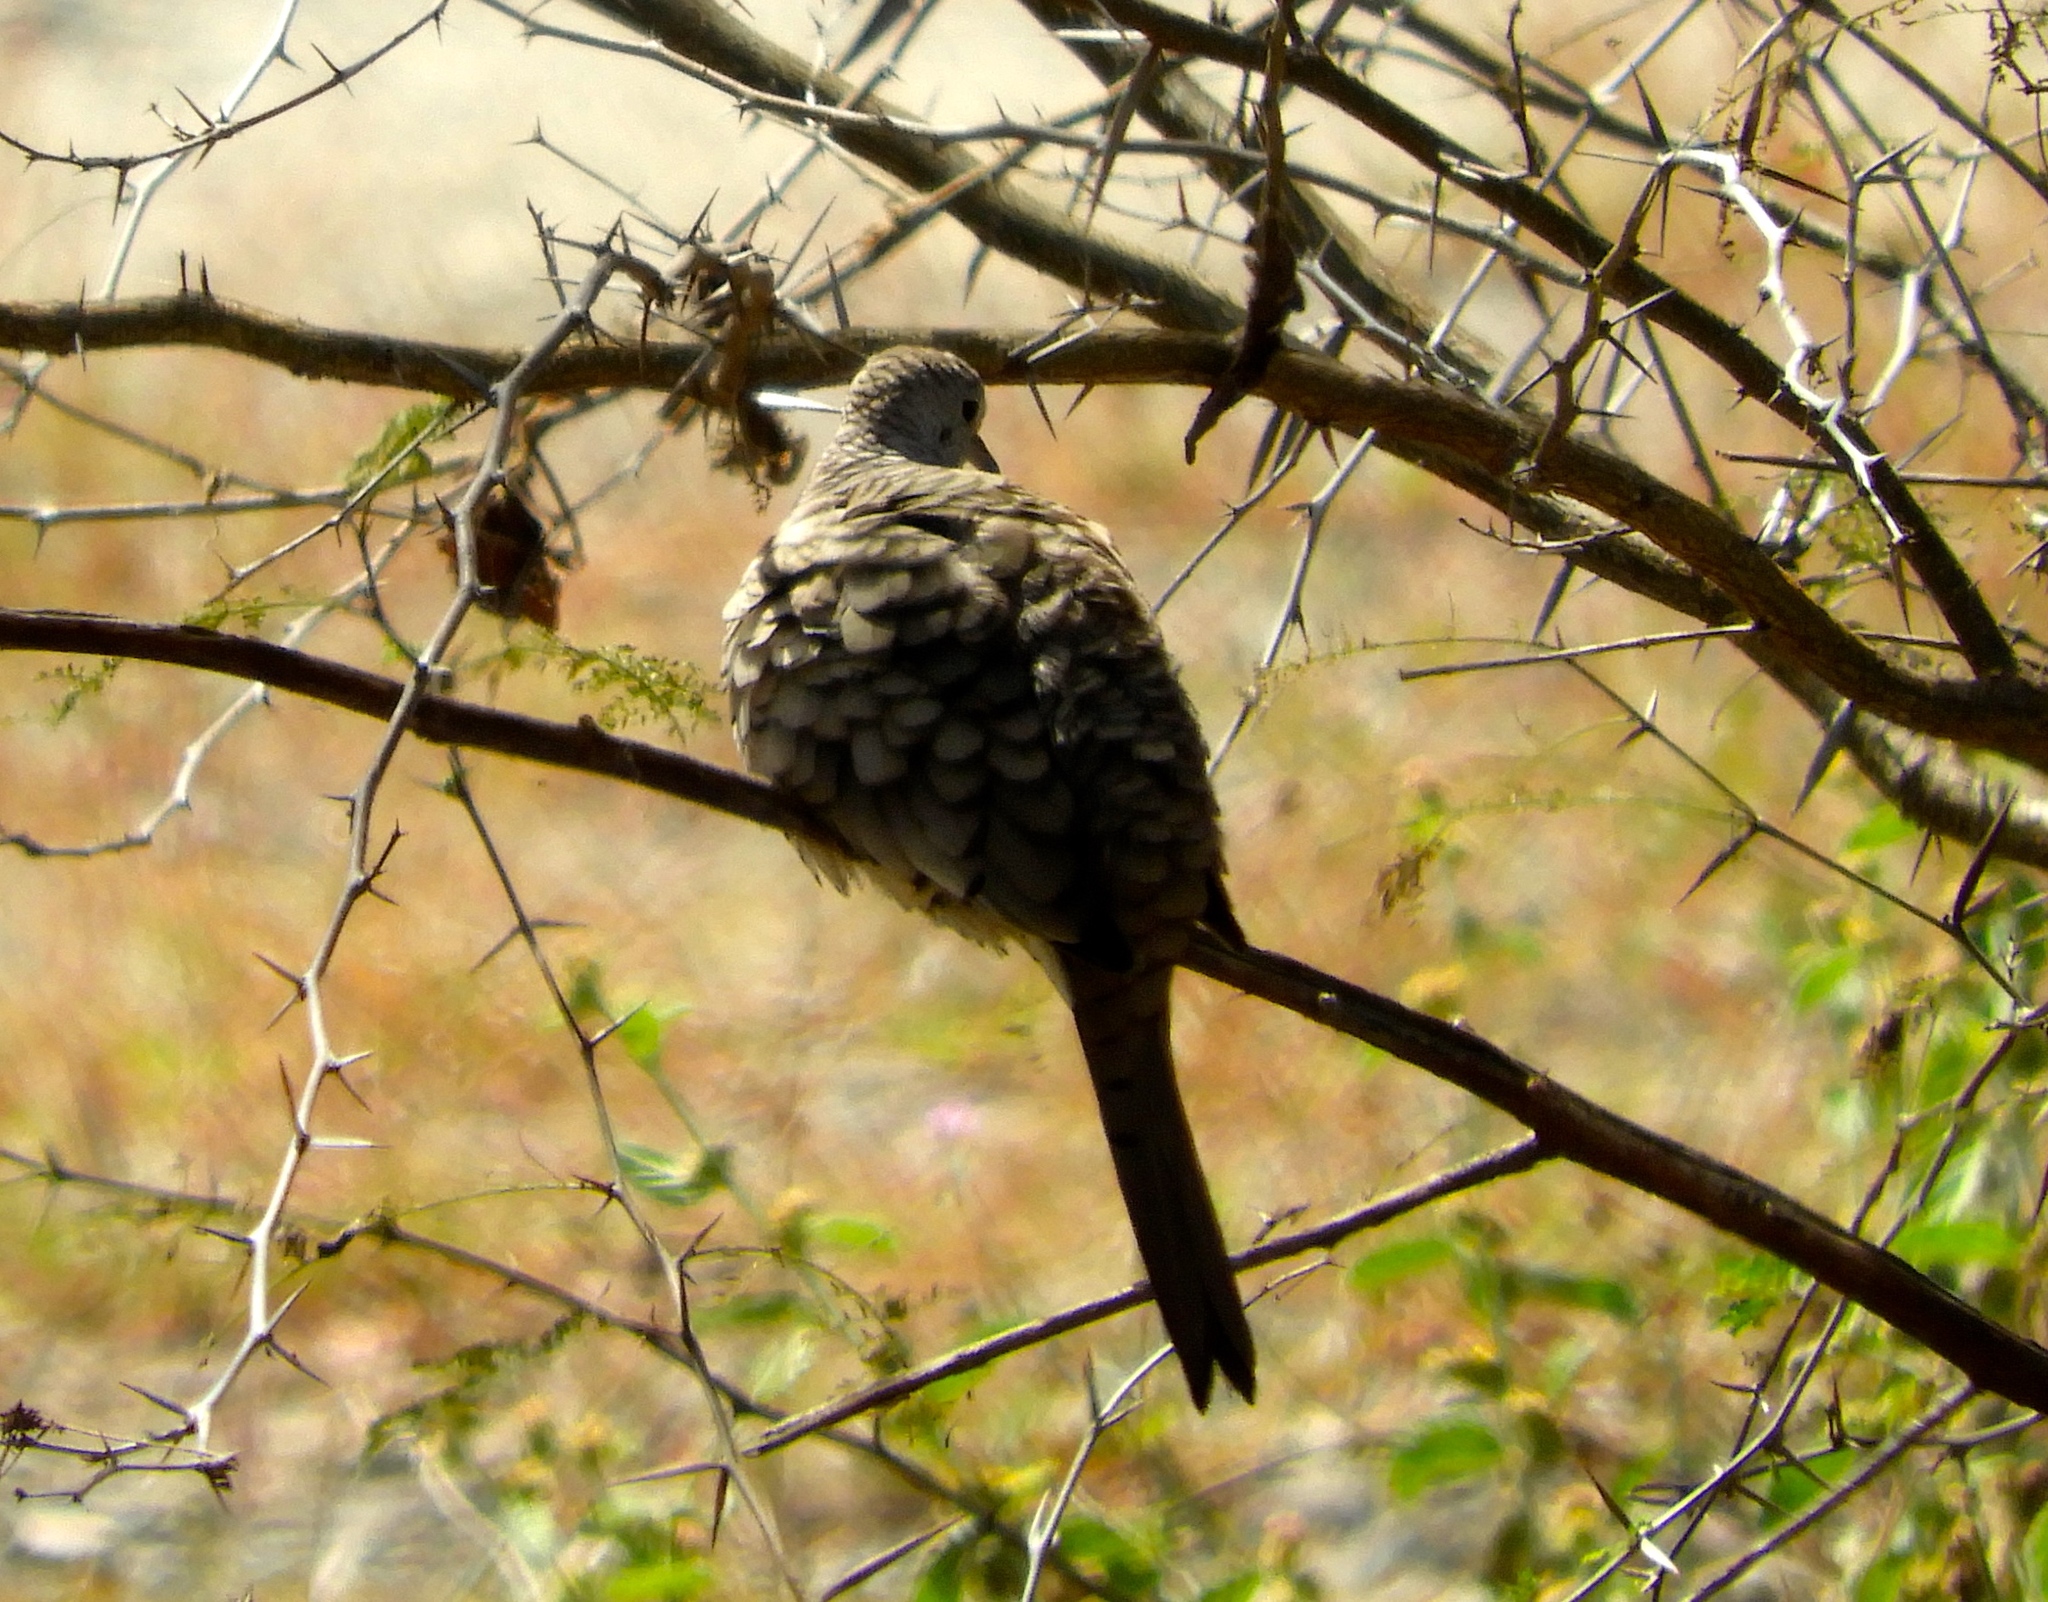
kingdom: Animalia
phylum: Chordata
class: Aves
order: Columbiformes
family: Columbidae
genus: Columbina
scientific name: Columbina inca
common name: Inca dove
